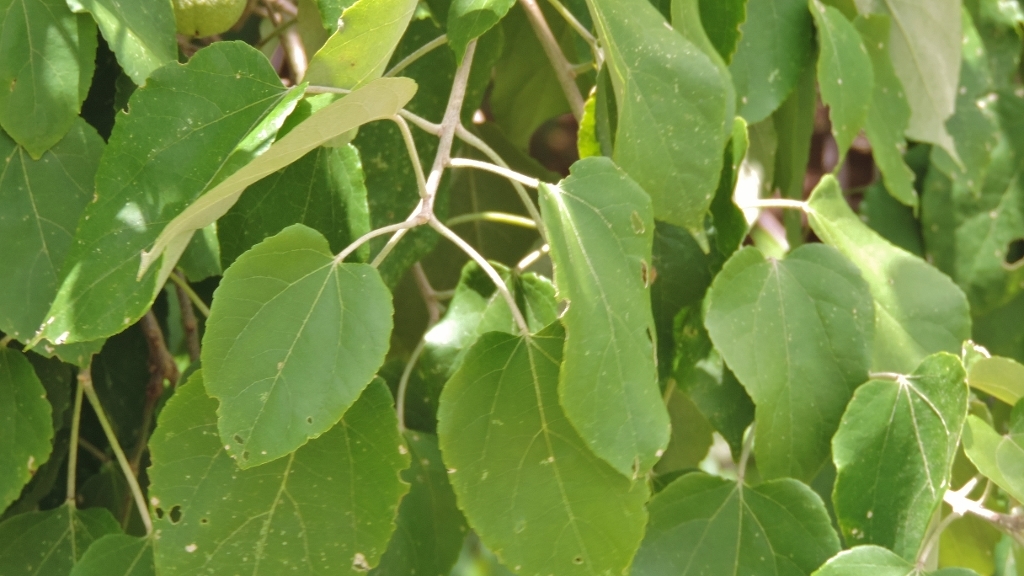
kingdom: Plantae
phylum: Tracheophyta
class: Magnoliopsida
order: Malpighiales
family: Euphorbiaceae
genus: Croton
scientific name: Croton megalobotrys
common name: Large fever berry
